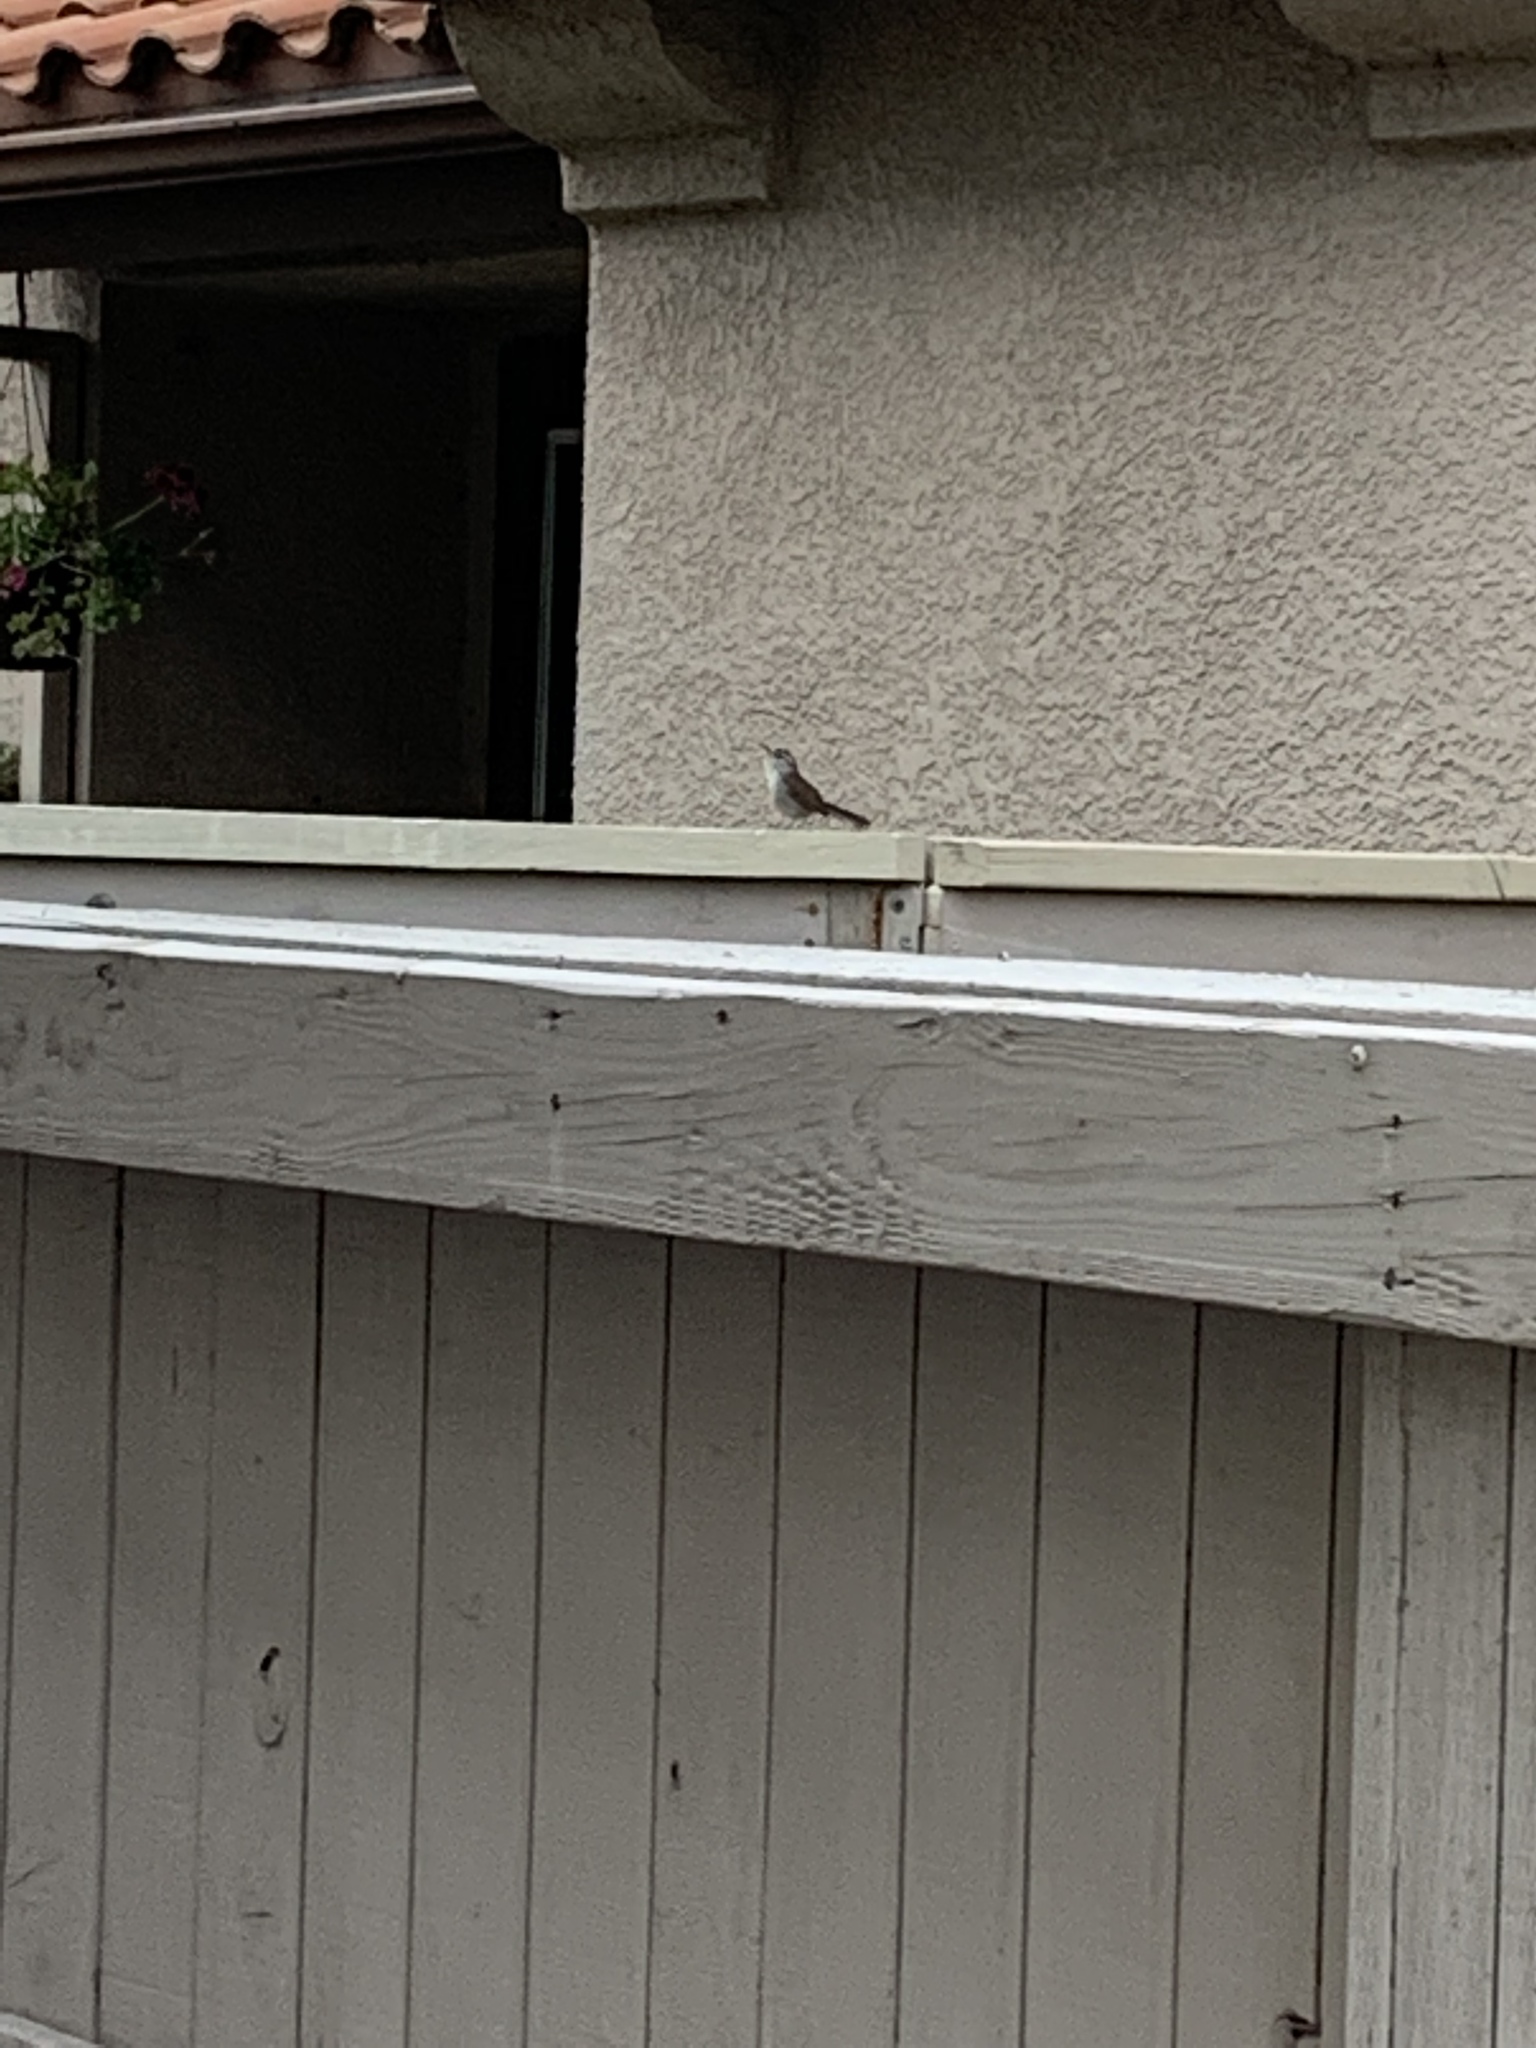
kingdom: Animalia
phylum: Chordata
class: Aves
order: Passeriformes
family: Troglodytidae
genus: Thryomanes
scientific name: Thryomanes bewickii
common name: Bewick's wren
